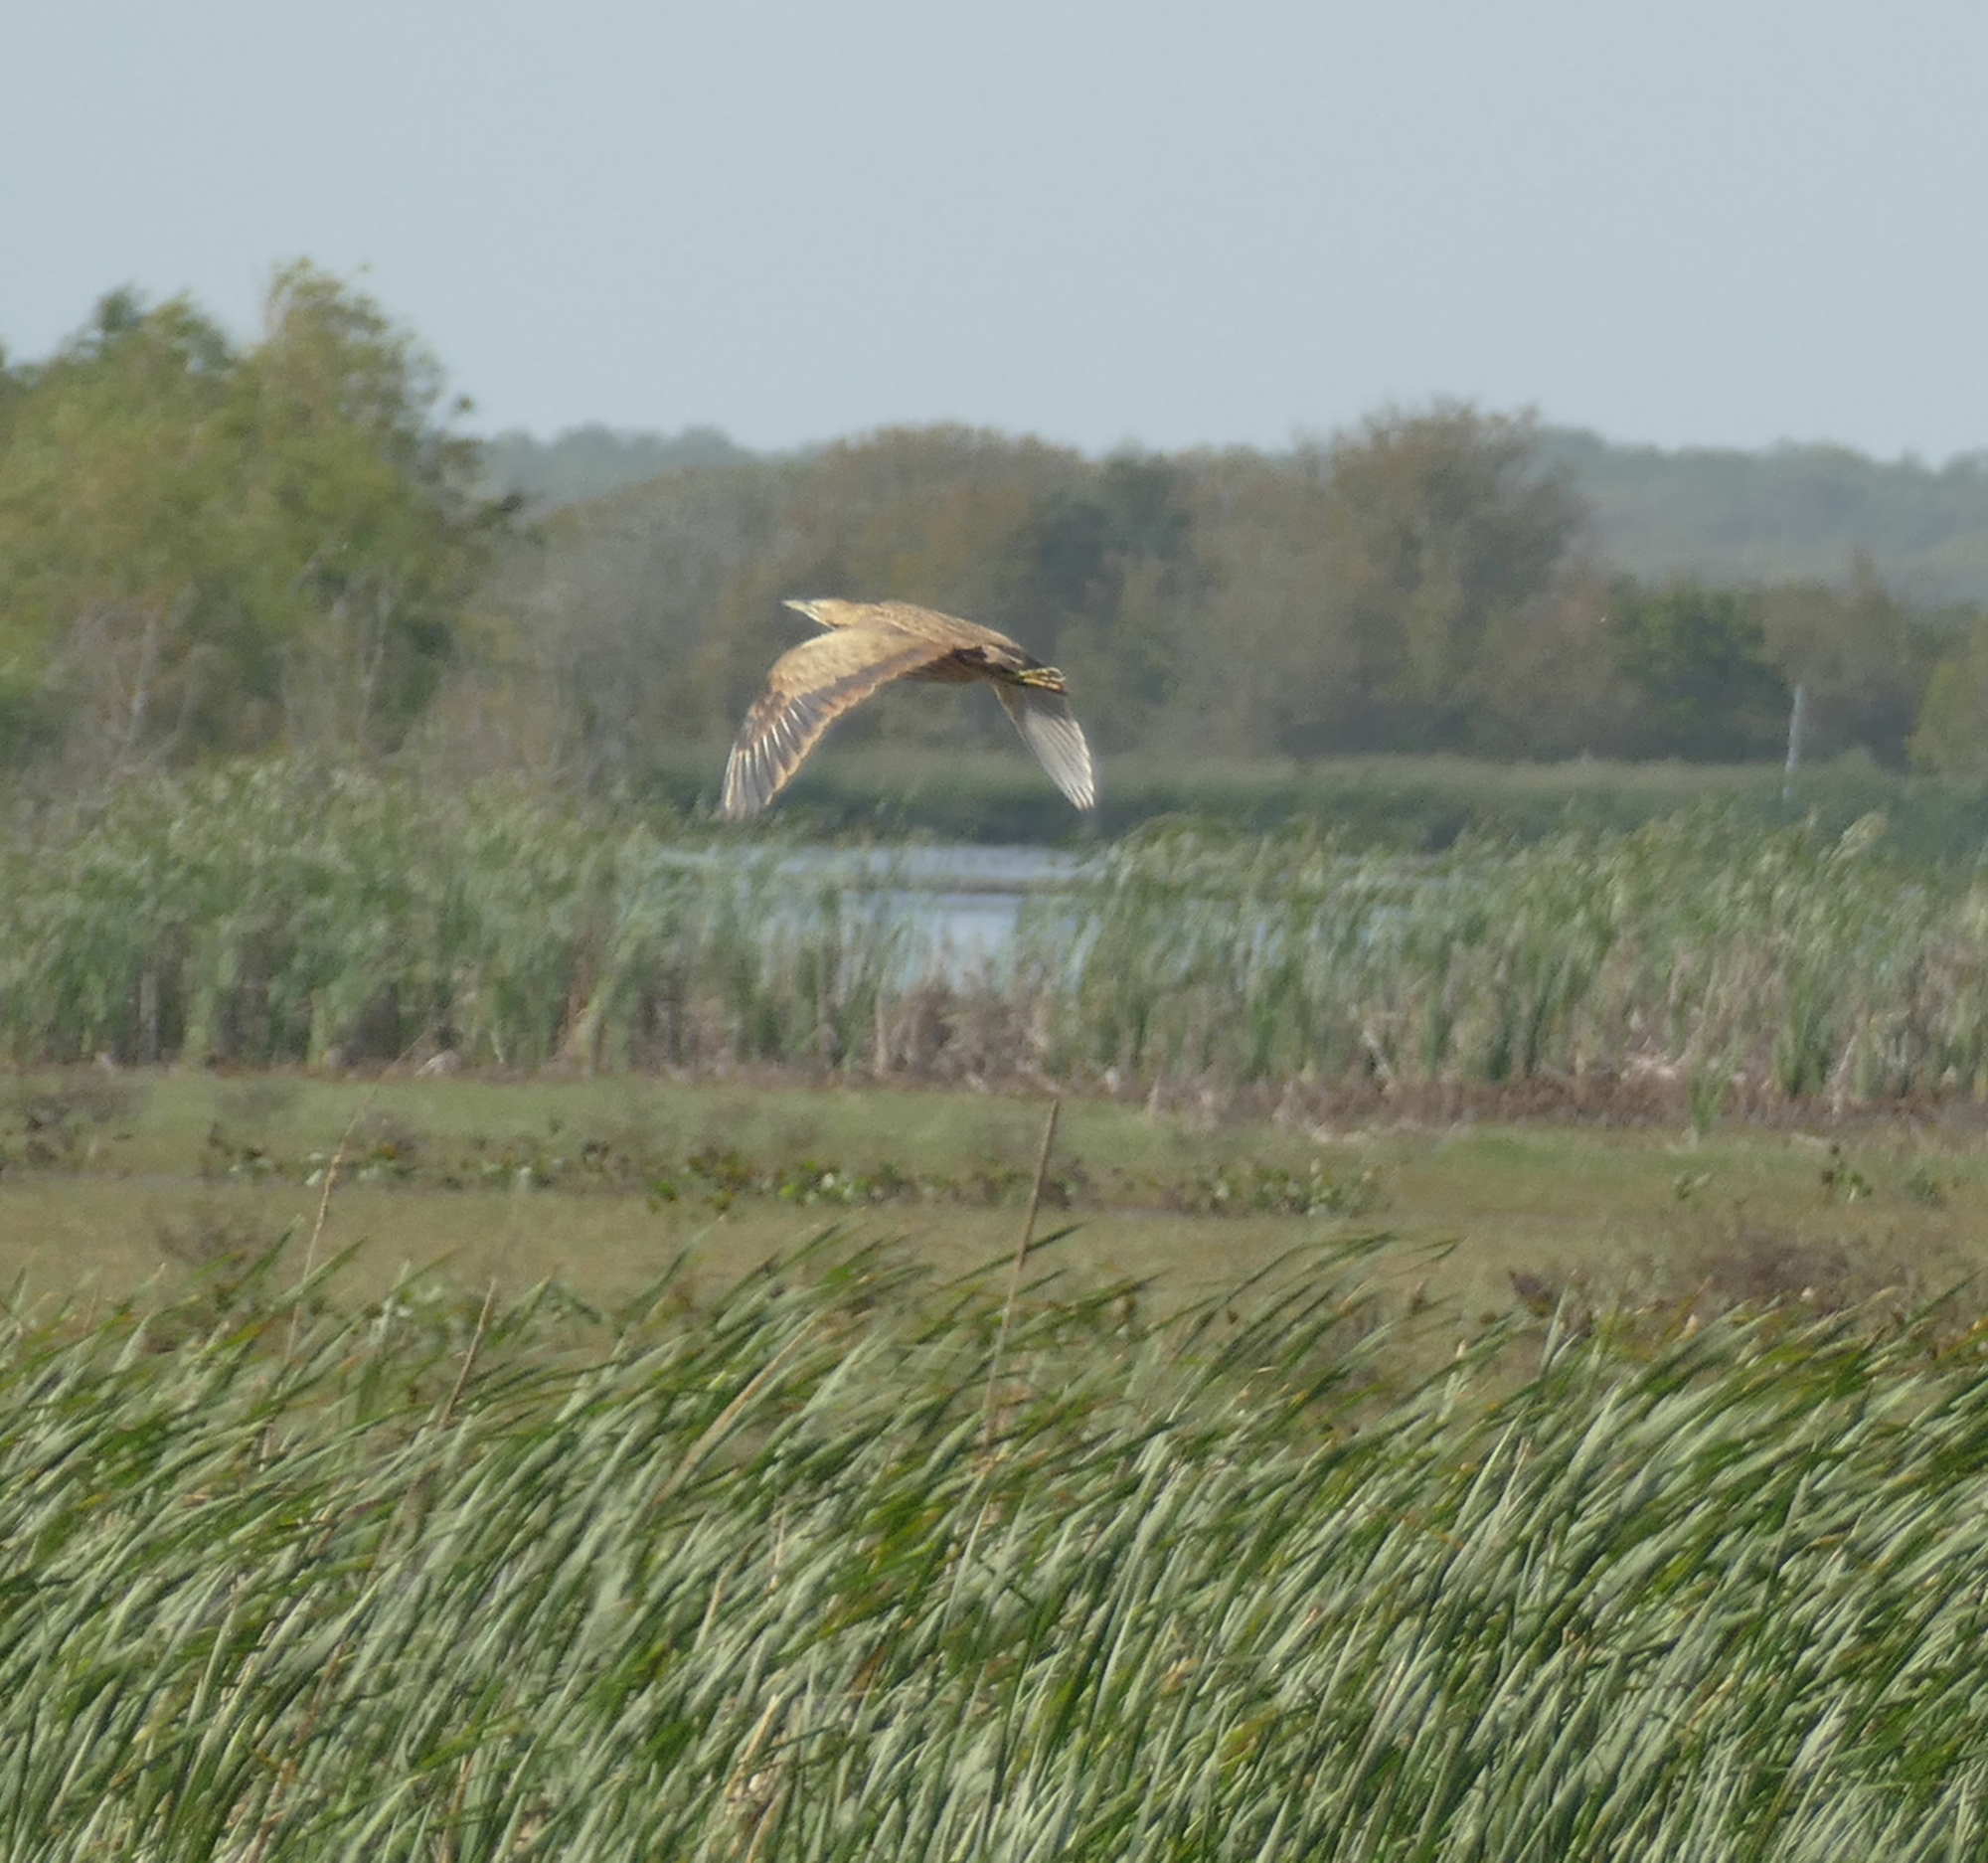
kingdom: Animalia
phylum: Chordata
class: Aves
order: Pelecaniformes
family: Ardeidae
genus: Botaurus
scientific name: Botaurus lentiginosus
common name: American bittern
